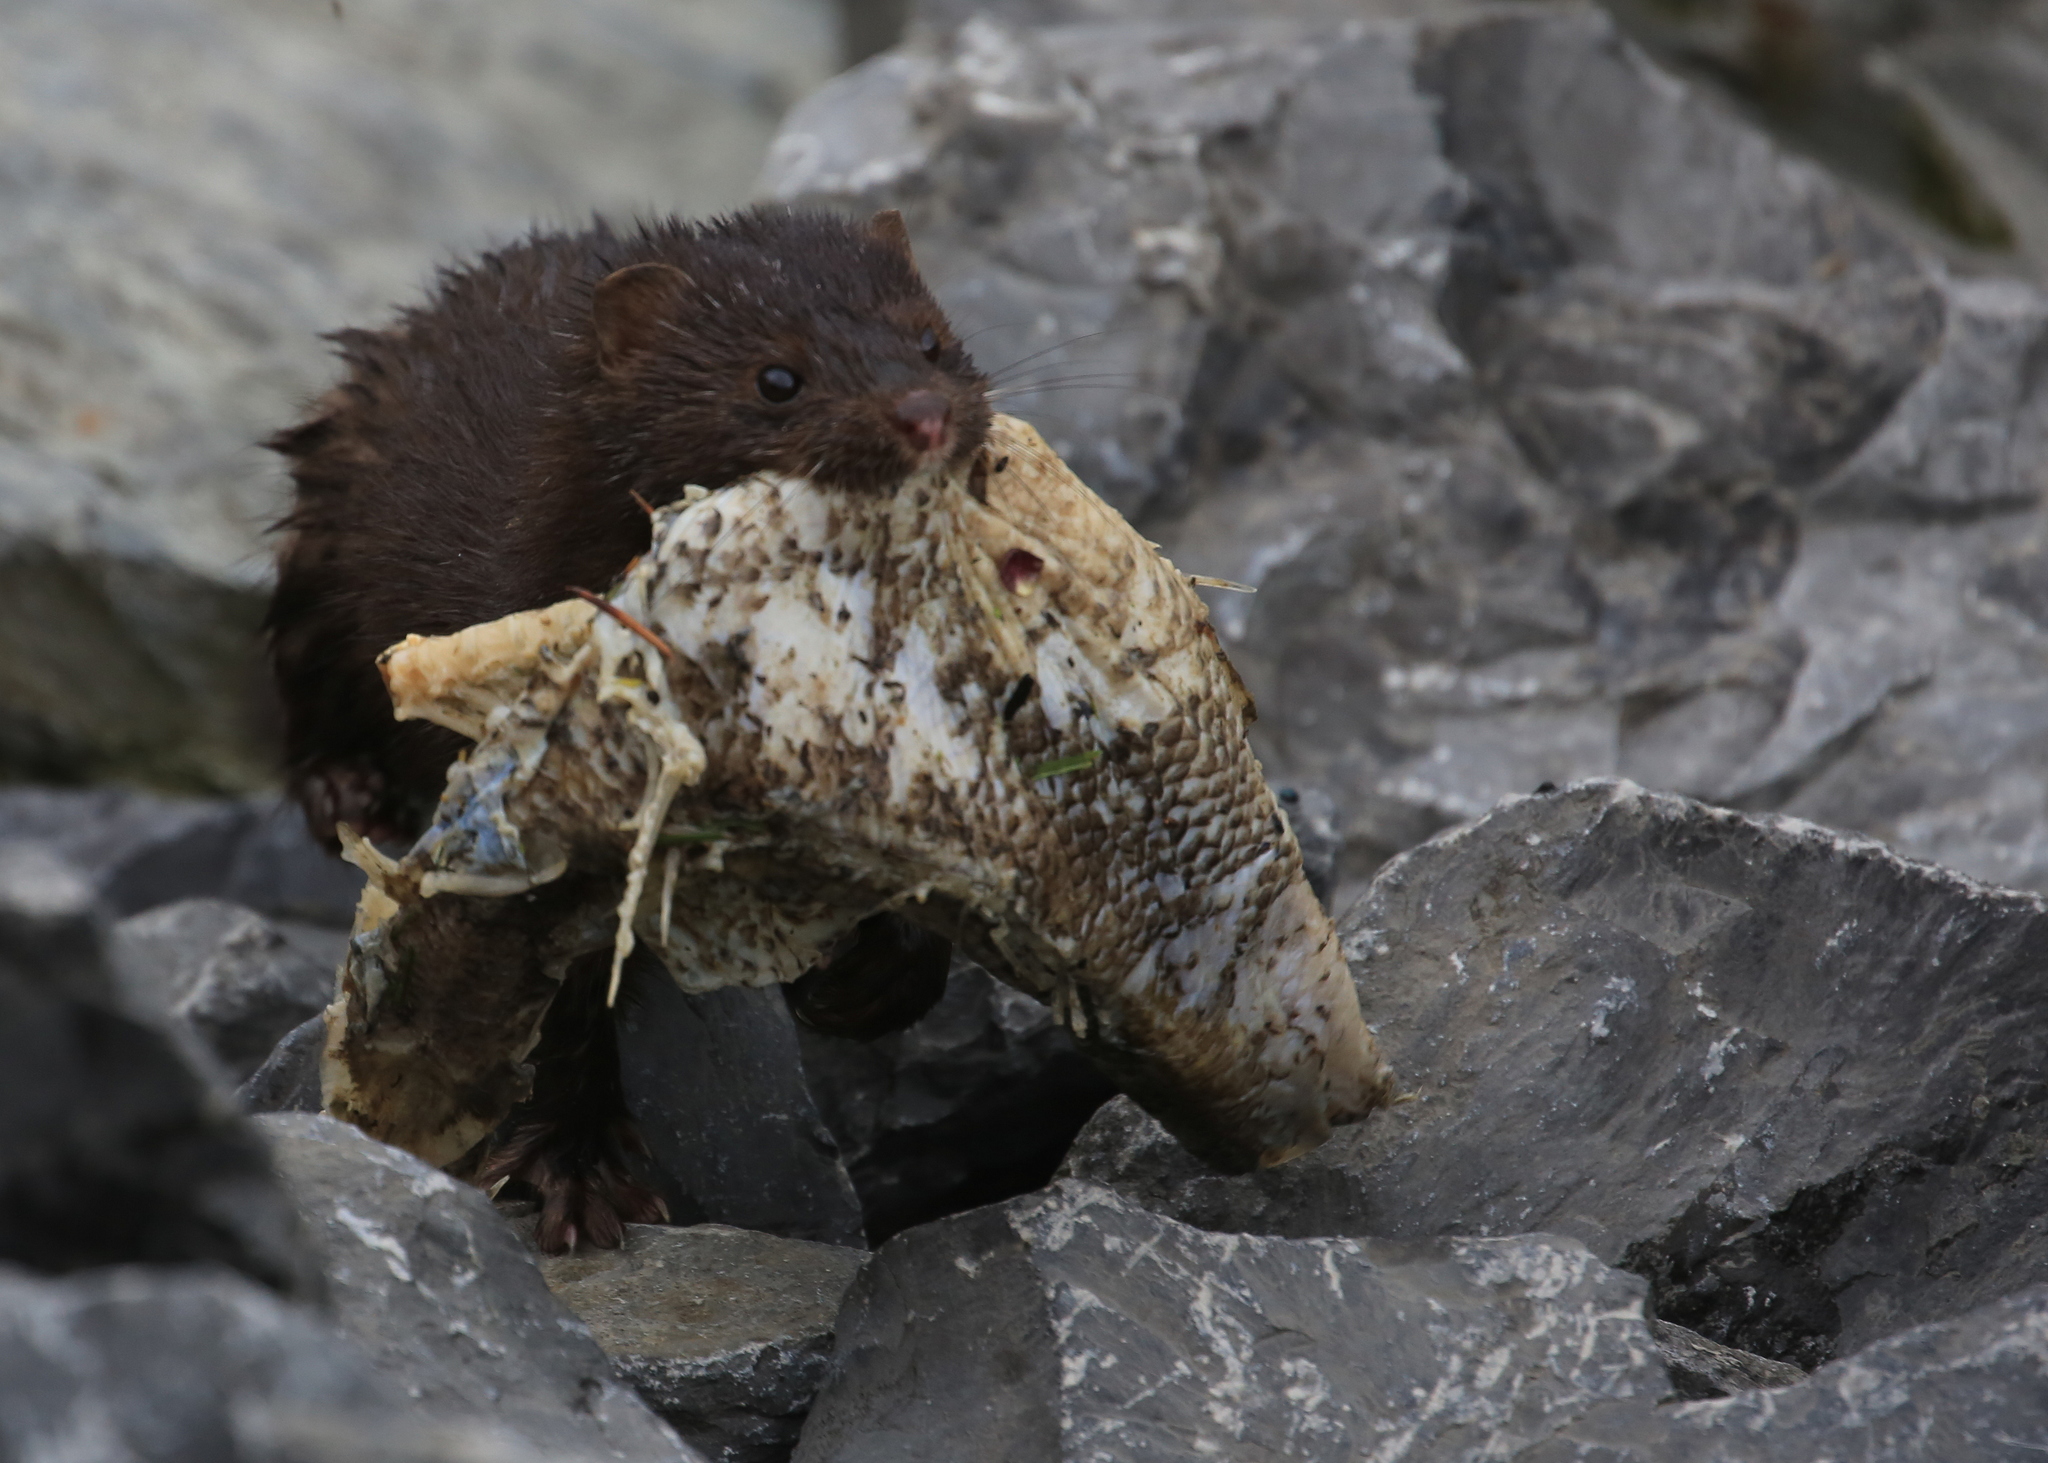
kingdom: Animalia
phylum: Chordata
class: Mammalia
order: Carnivora
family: Mustelidae
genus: Mustela
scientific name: Mustela
